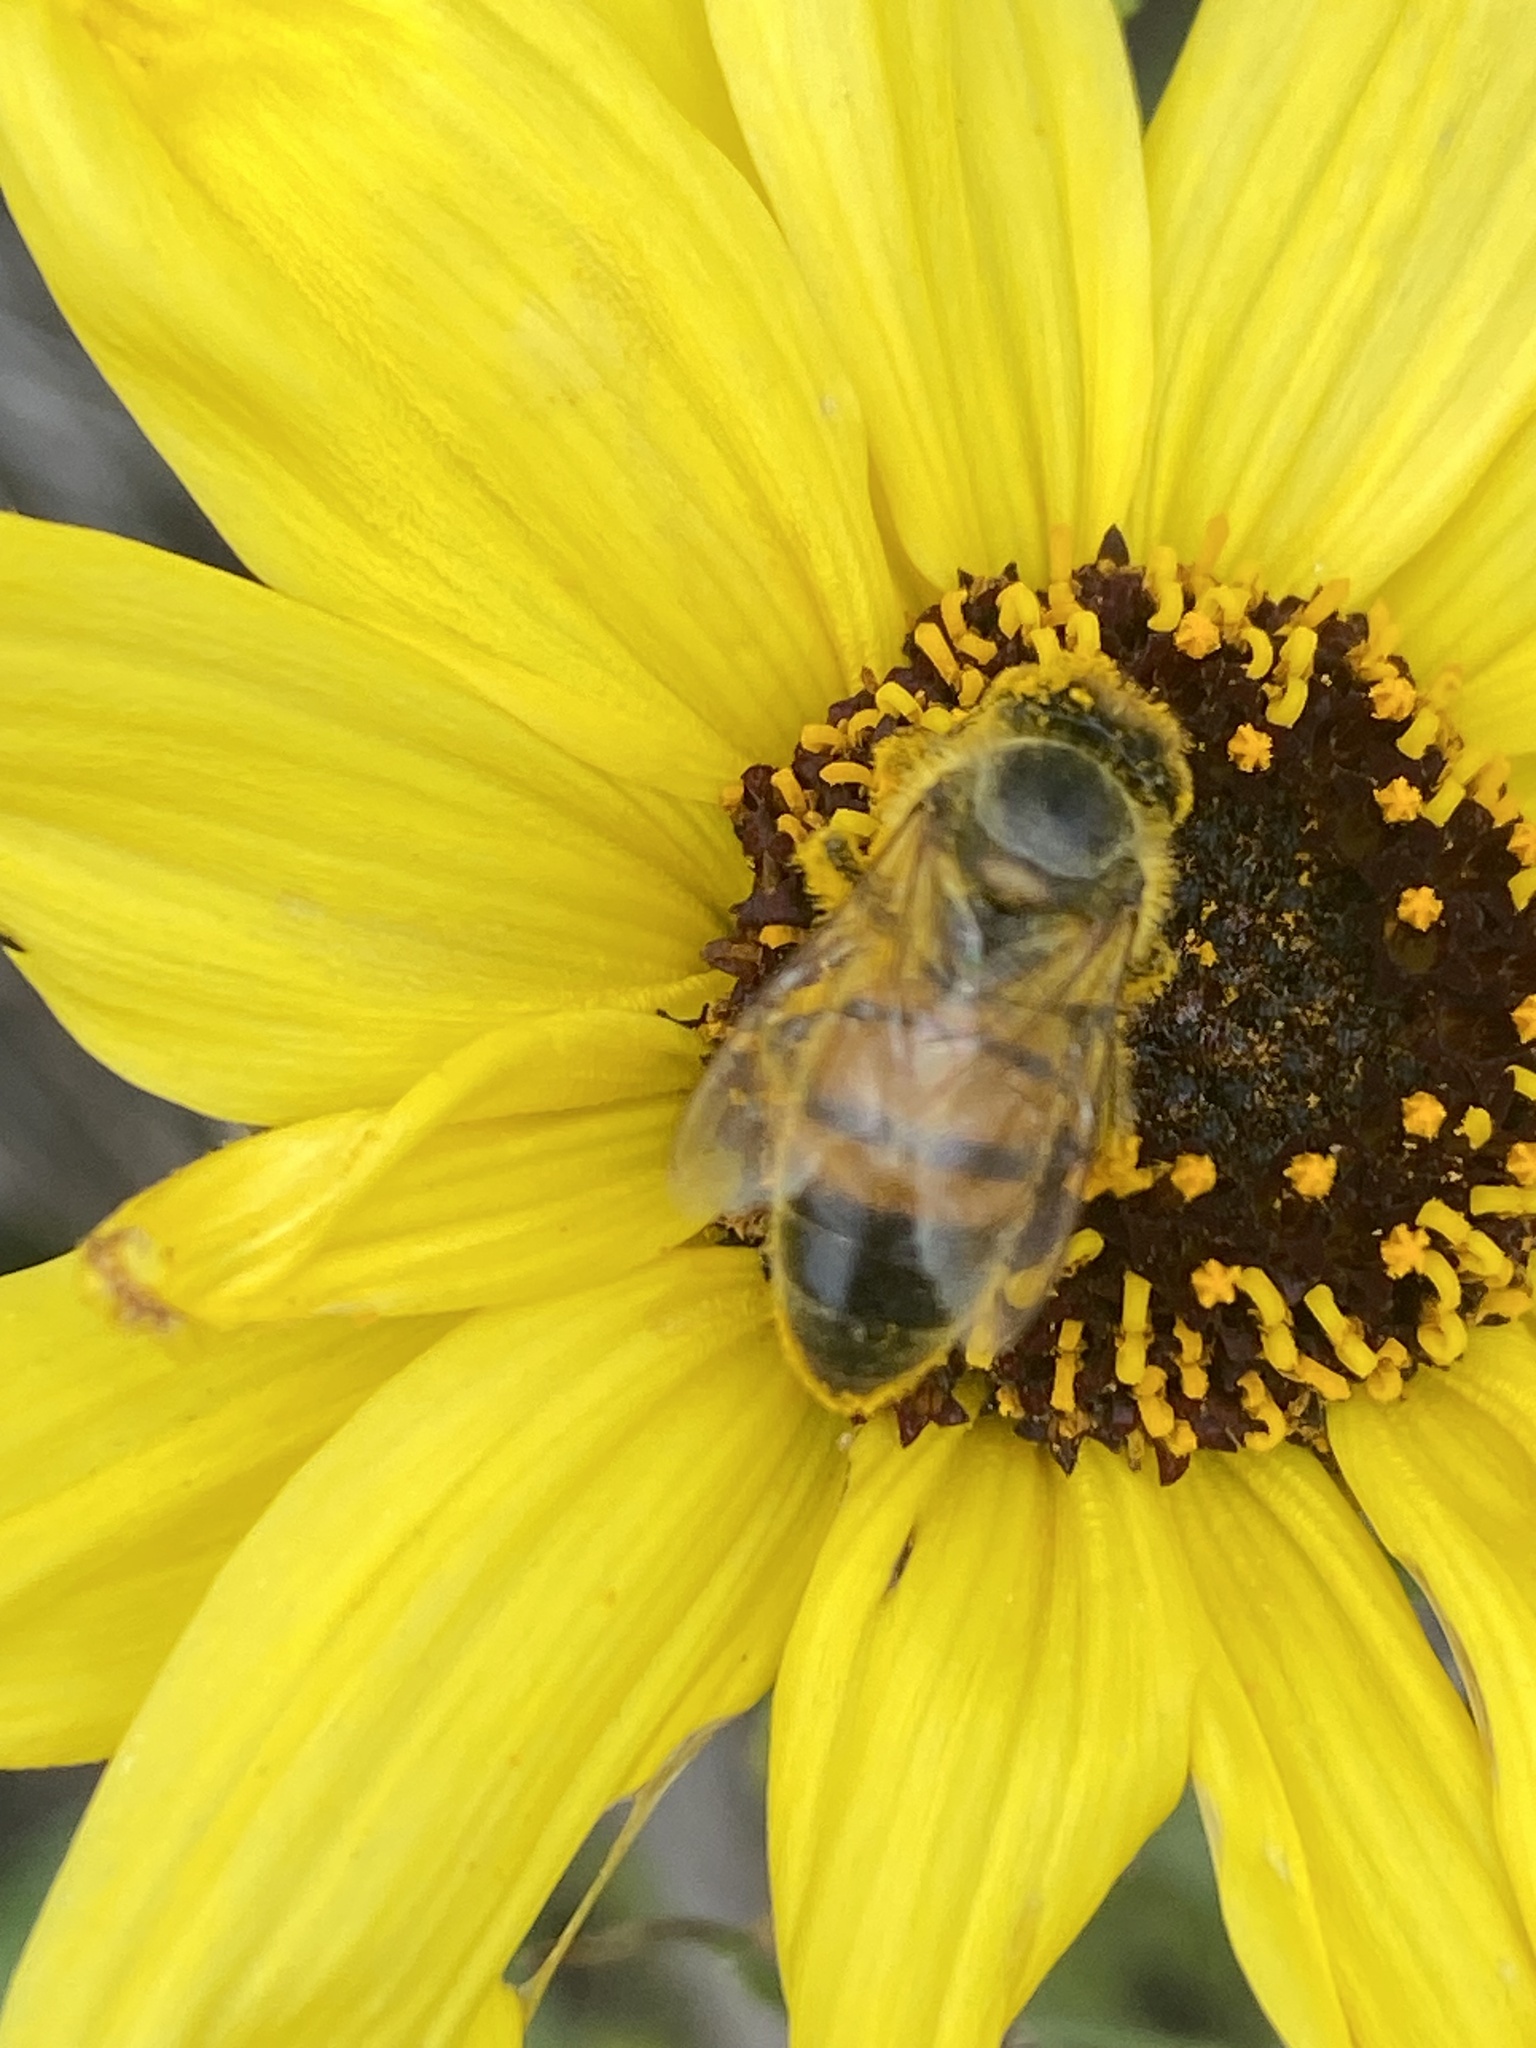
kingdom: Animalia
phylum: Arthropoda
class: Insecta
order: Hymenoptera
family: Apidae
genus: Apis
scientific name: Apis mellifera
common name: Honey bee
